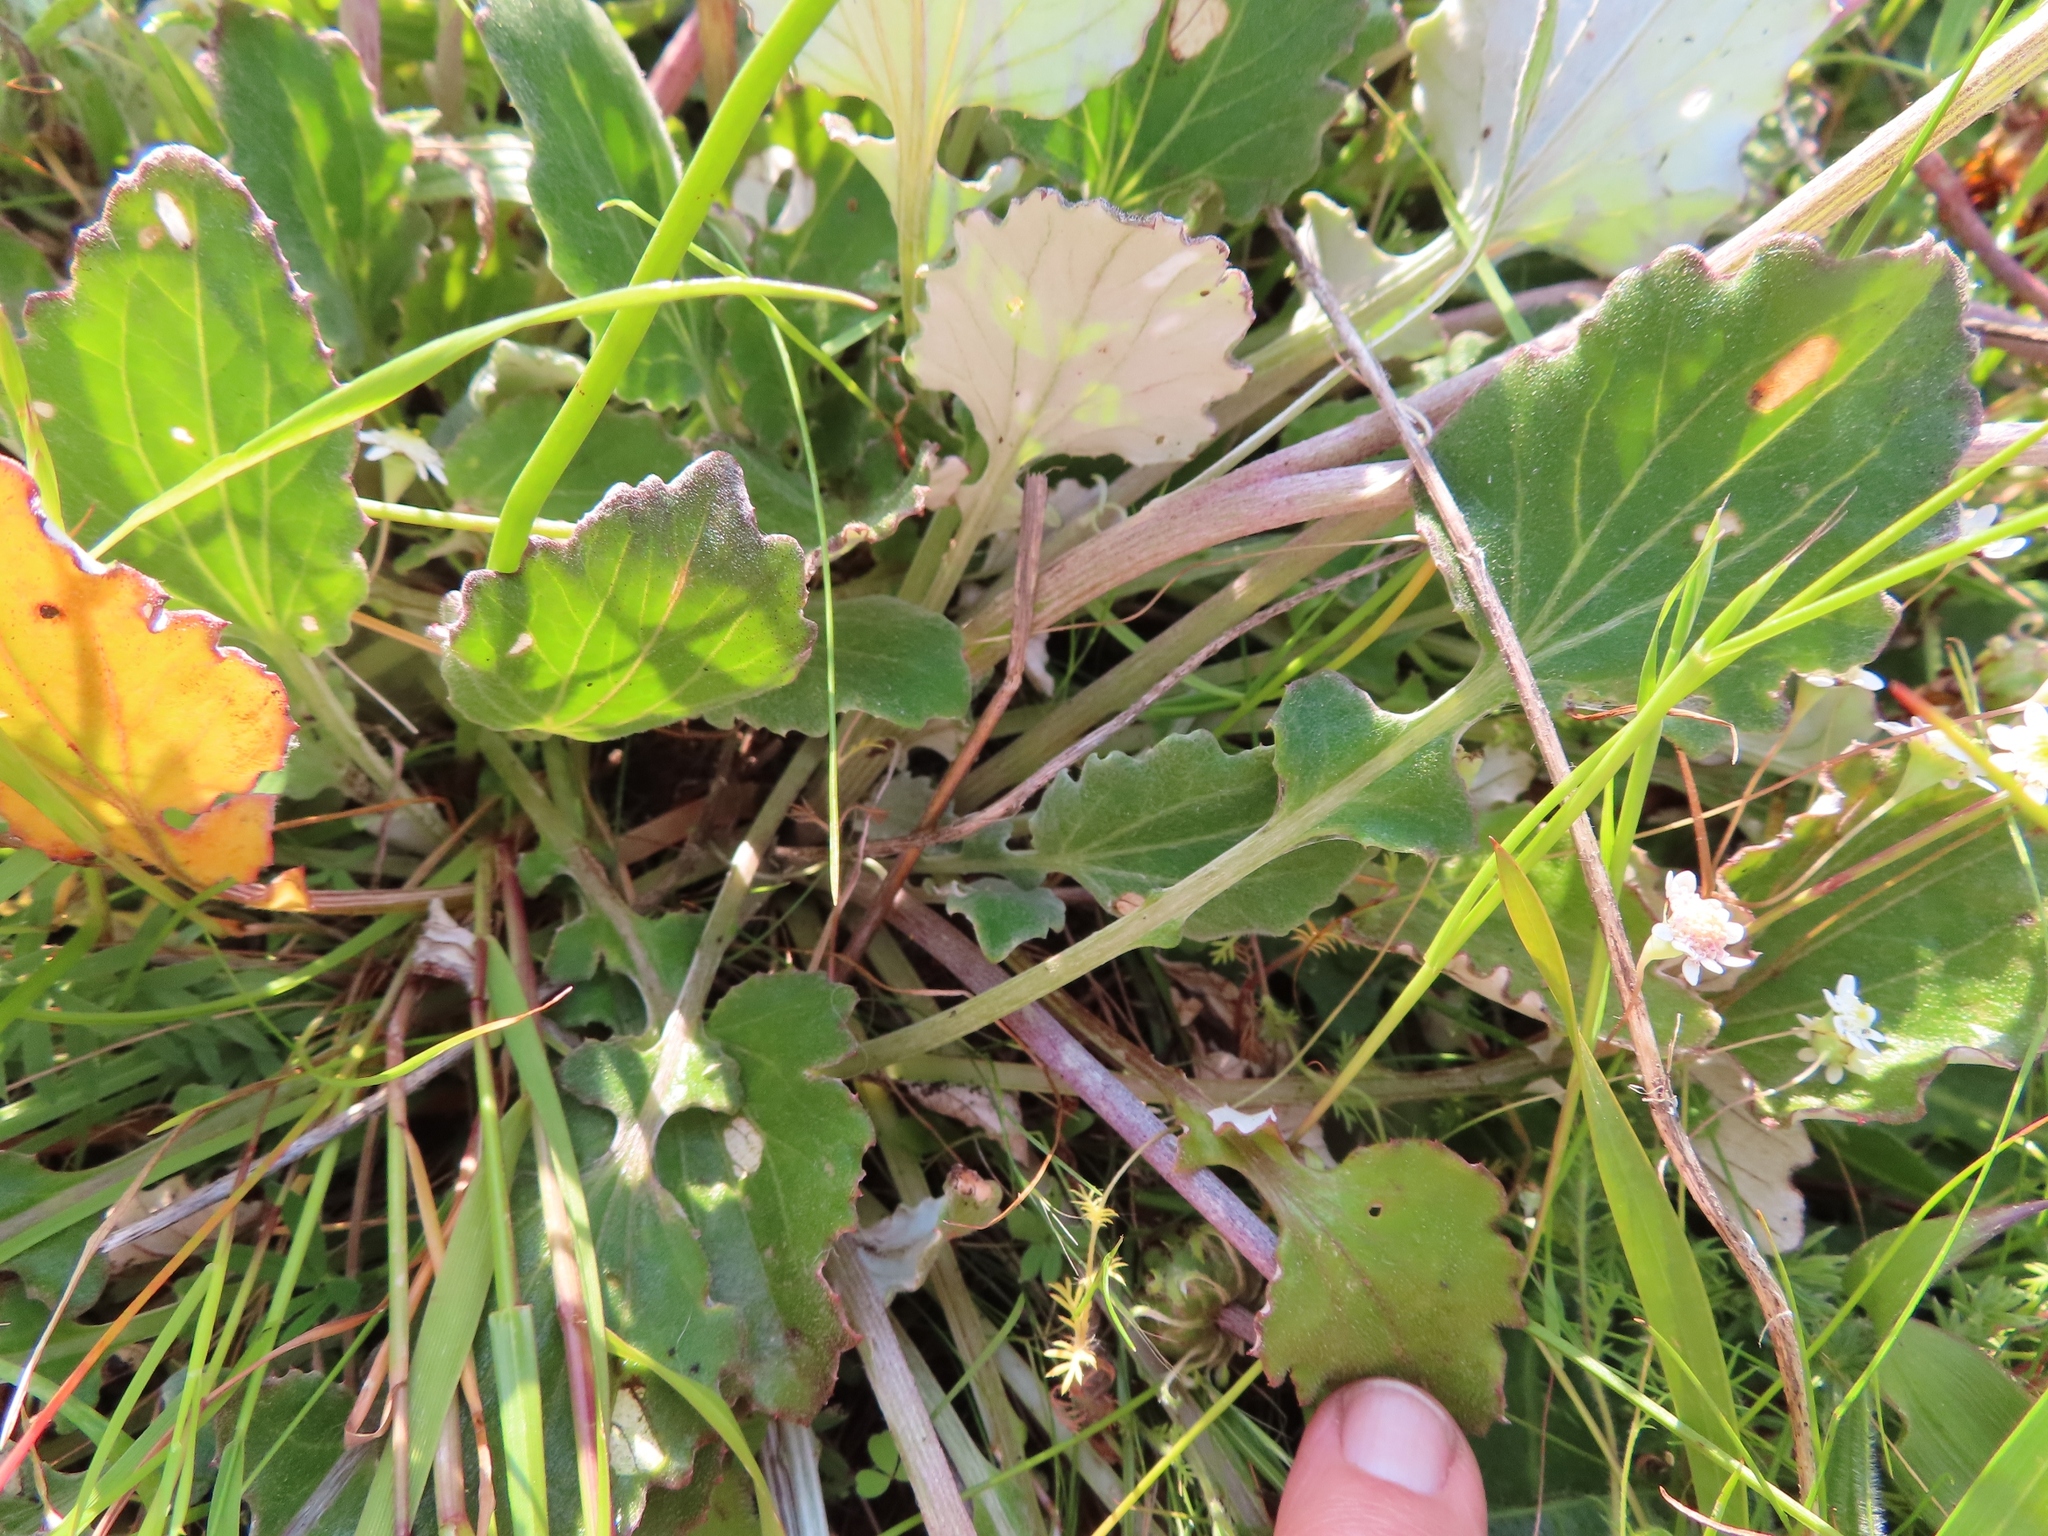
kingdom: Plantae
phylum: Tracheophyta
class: Magnoliopsida
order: Asterales
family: Asteraceae
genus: Arctotis
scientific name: Arctotis acaulis
